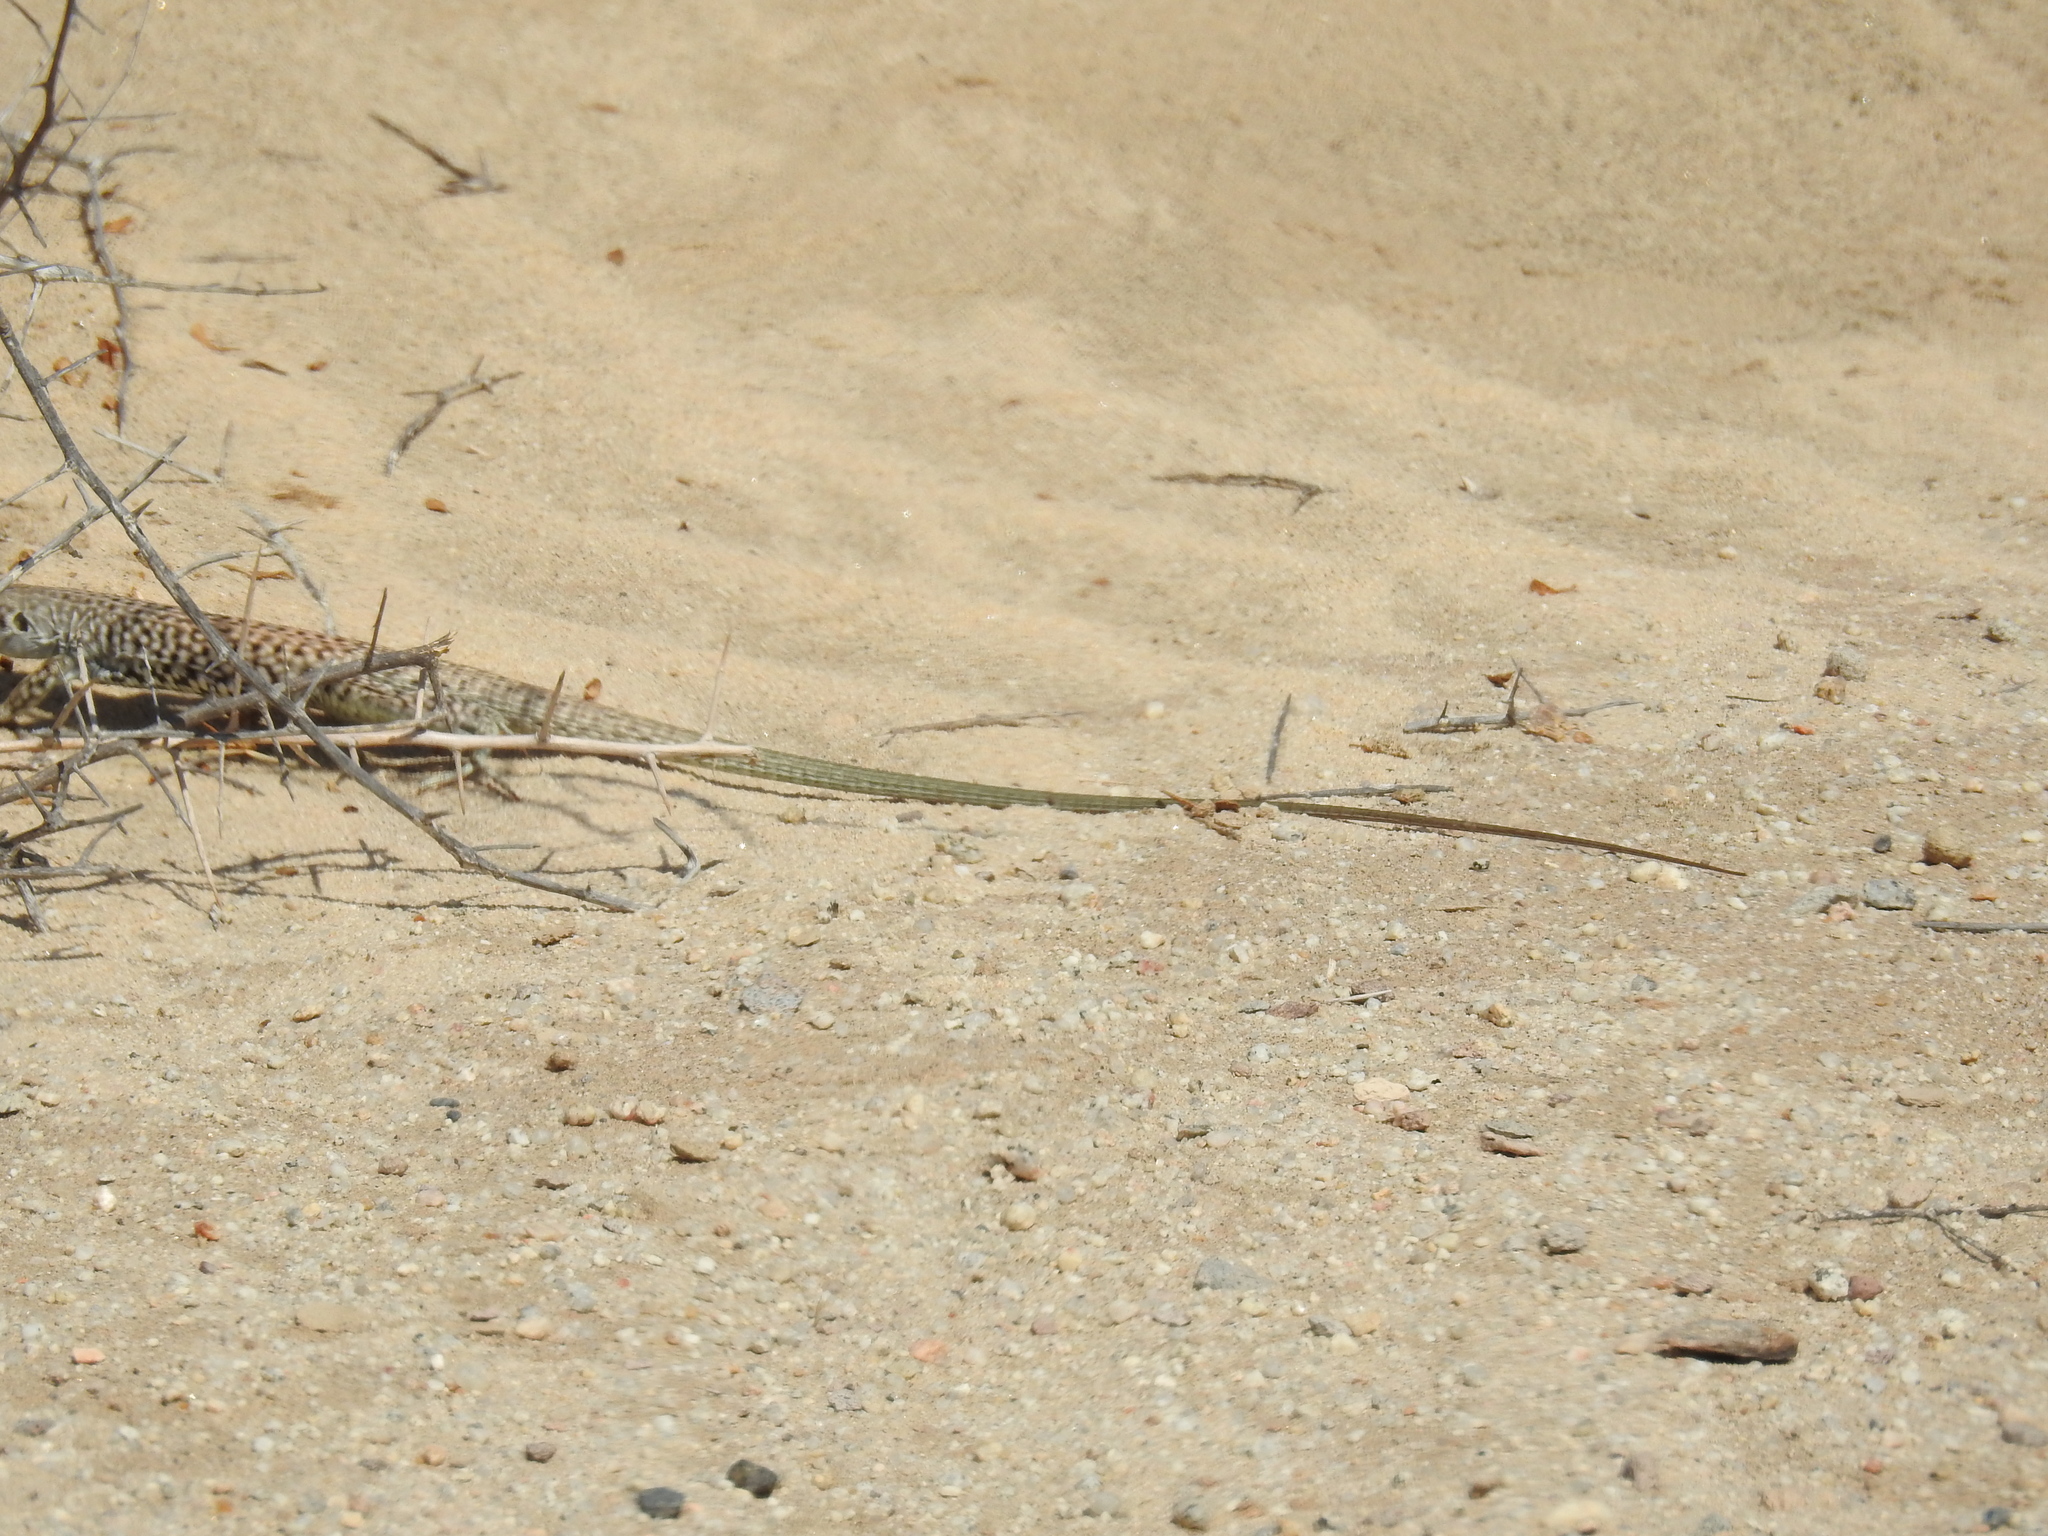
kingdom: Animalia
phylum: Chordata
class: Squamata
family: Teiidae
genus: Aspidoscelis
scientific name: Aspidoscelis tigris
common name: Tiger whiptail
